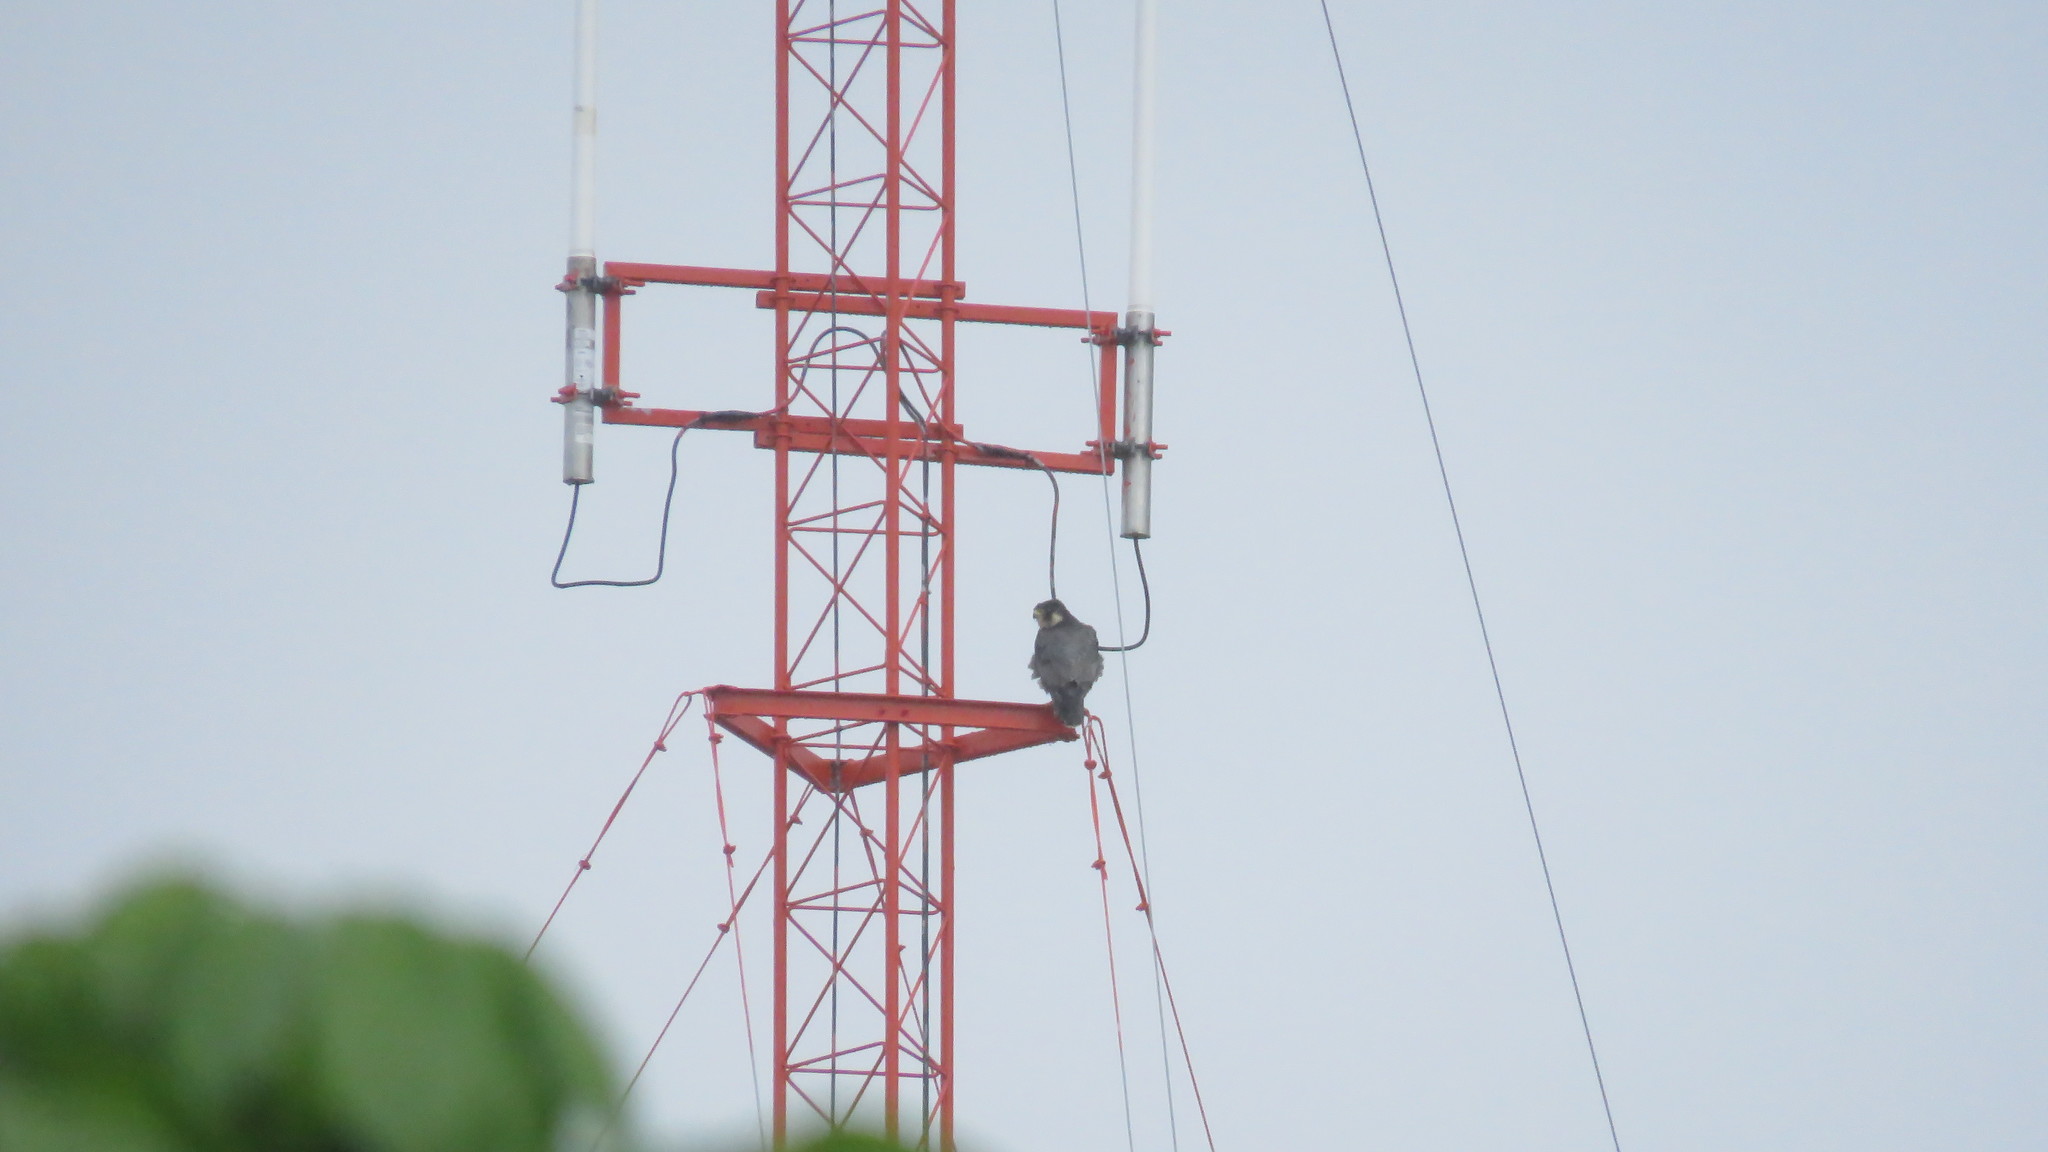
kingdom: Animalia
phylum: Chordata
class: Aves
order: Falconiformes
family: Falconidae
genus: Falco
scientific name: Falco peregrinus
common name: Peregrine falcon
